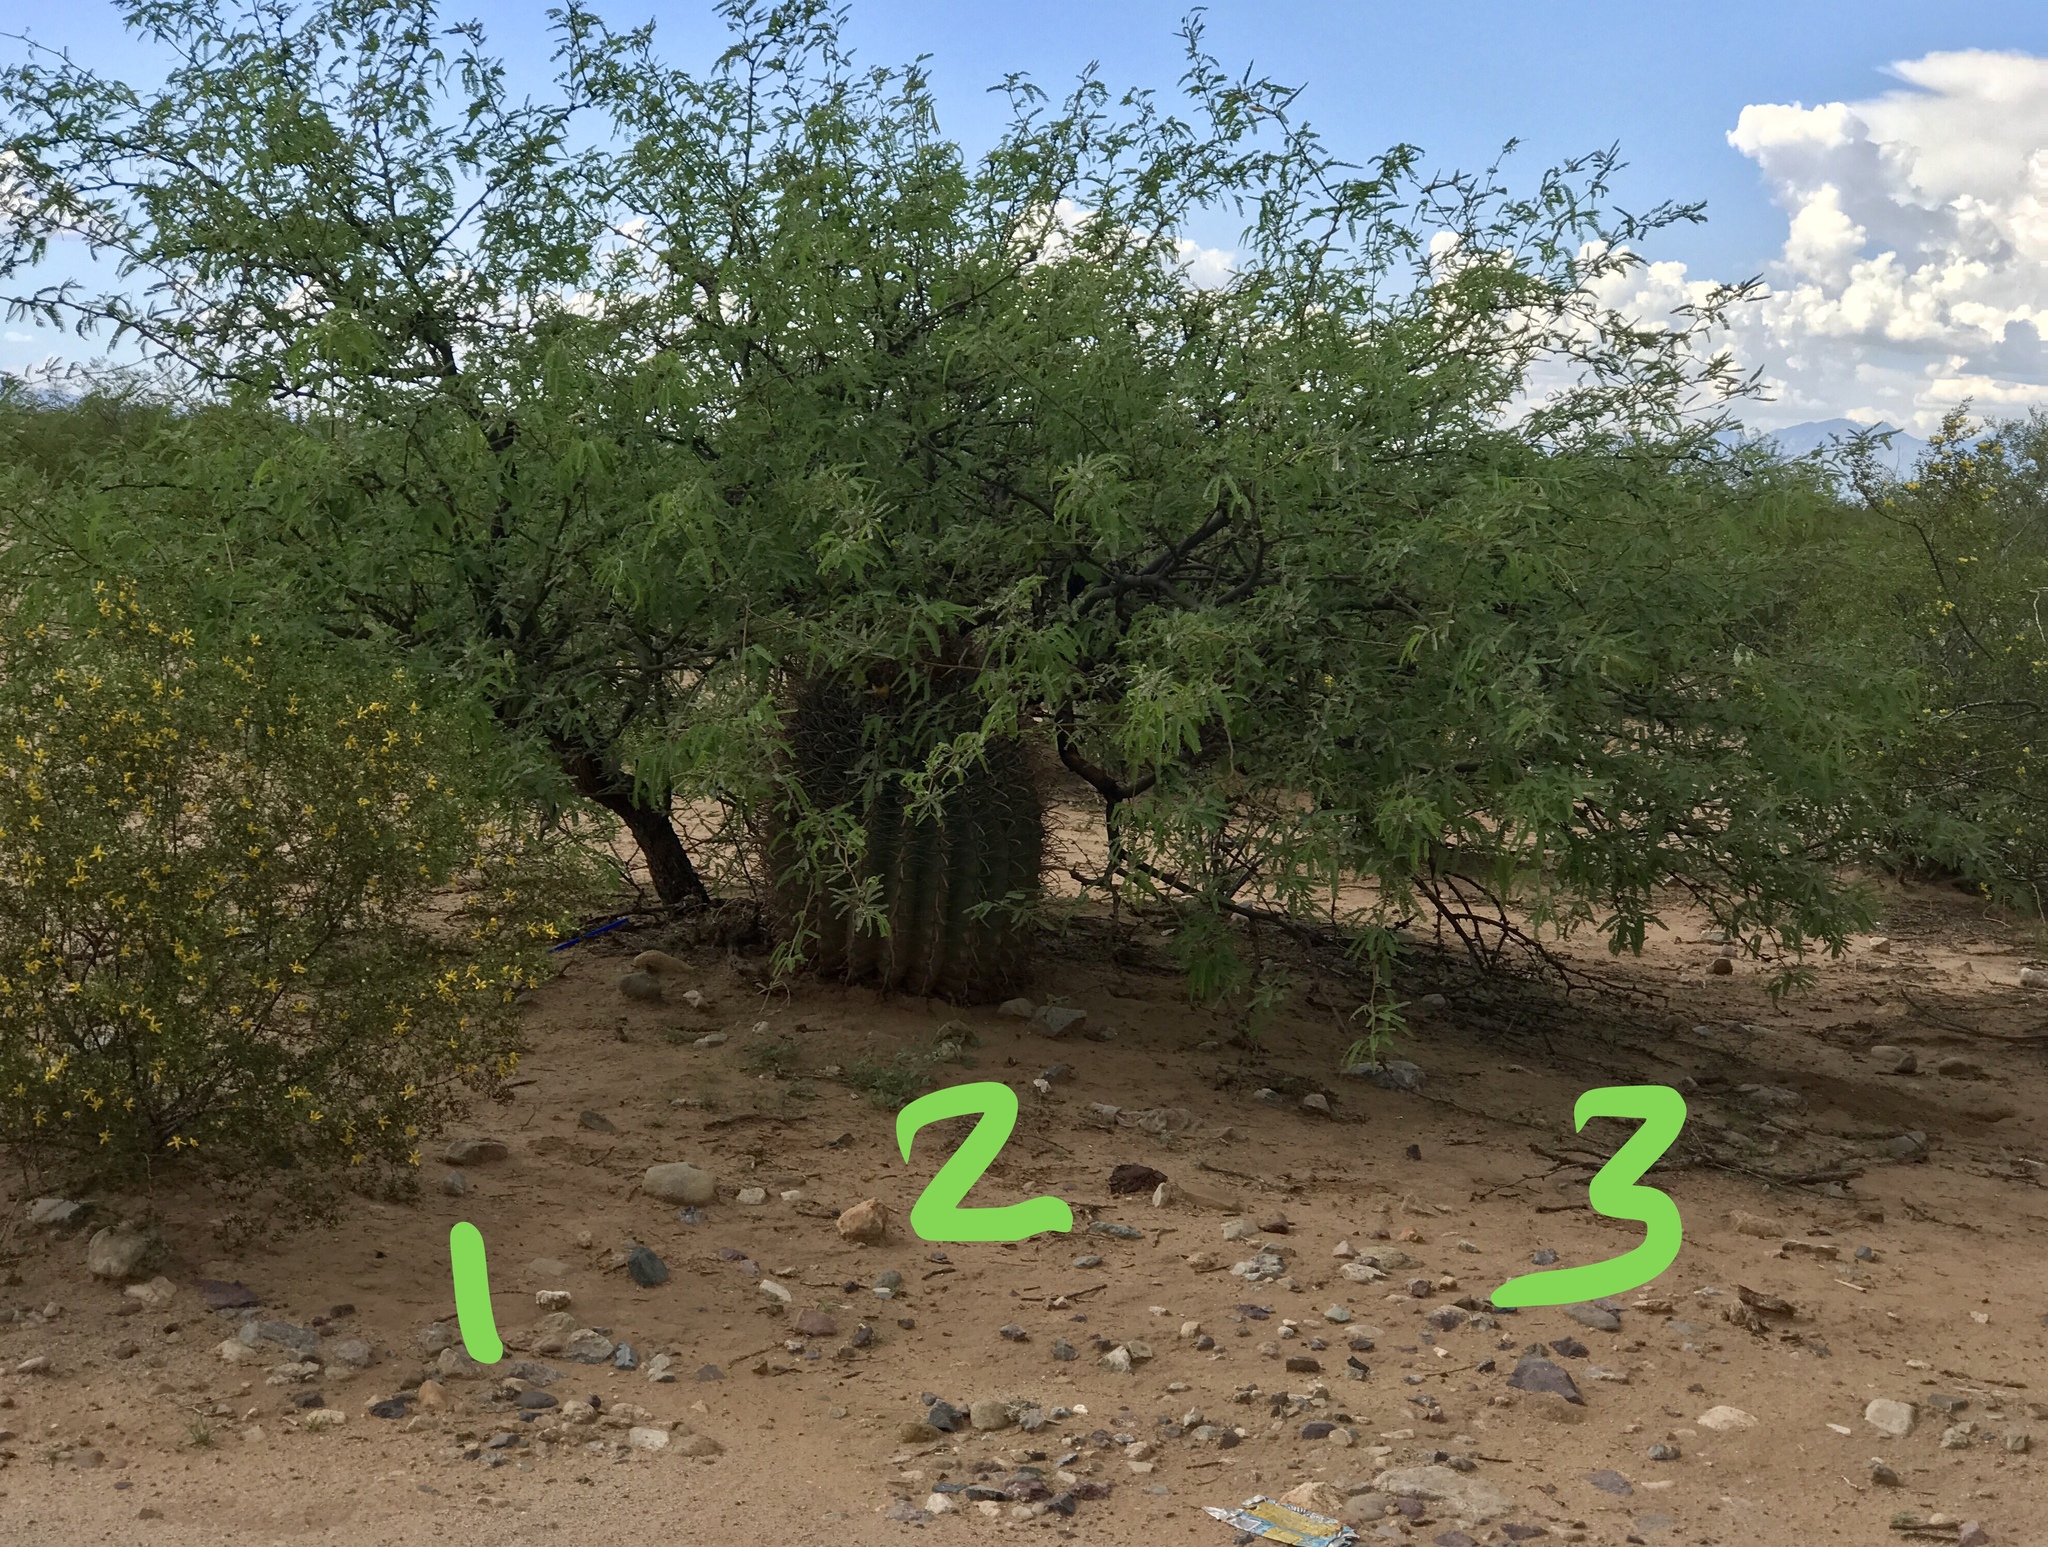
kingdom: Plantae
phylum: Tracheophyta
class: Magnoliopsida
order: Zygophyllales
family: Zygophyllaceae
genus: Larrea
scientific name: Larrea tridentata
